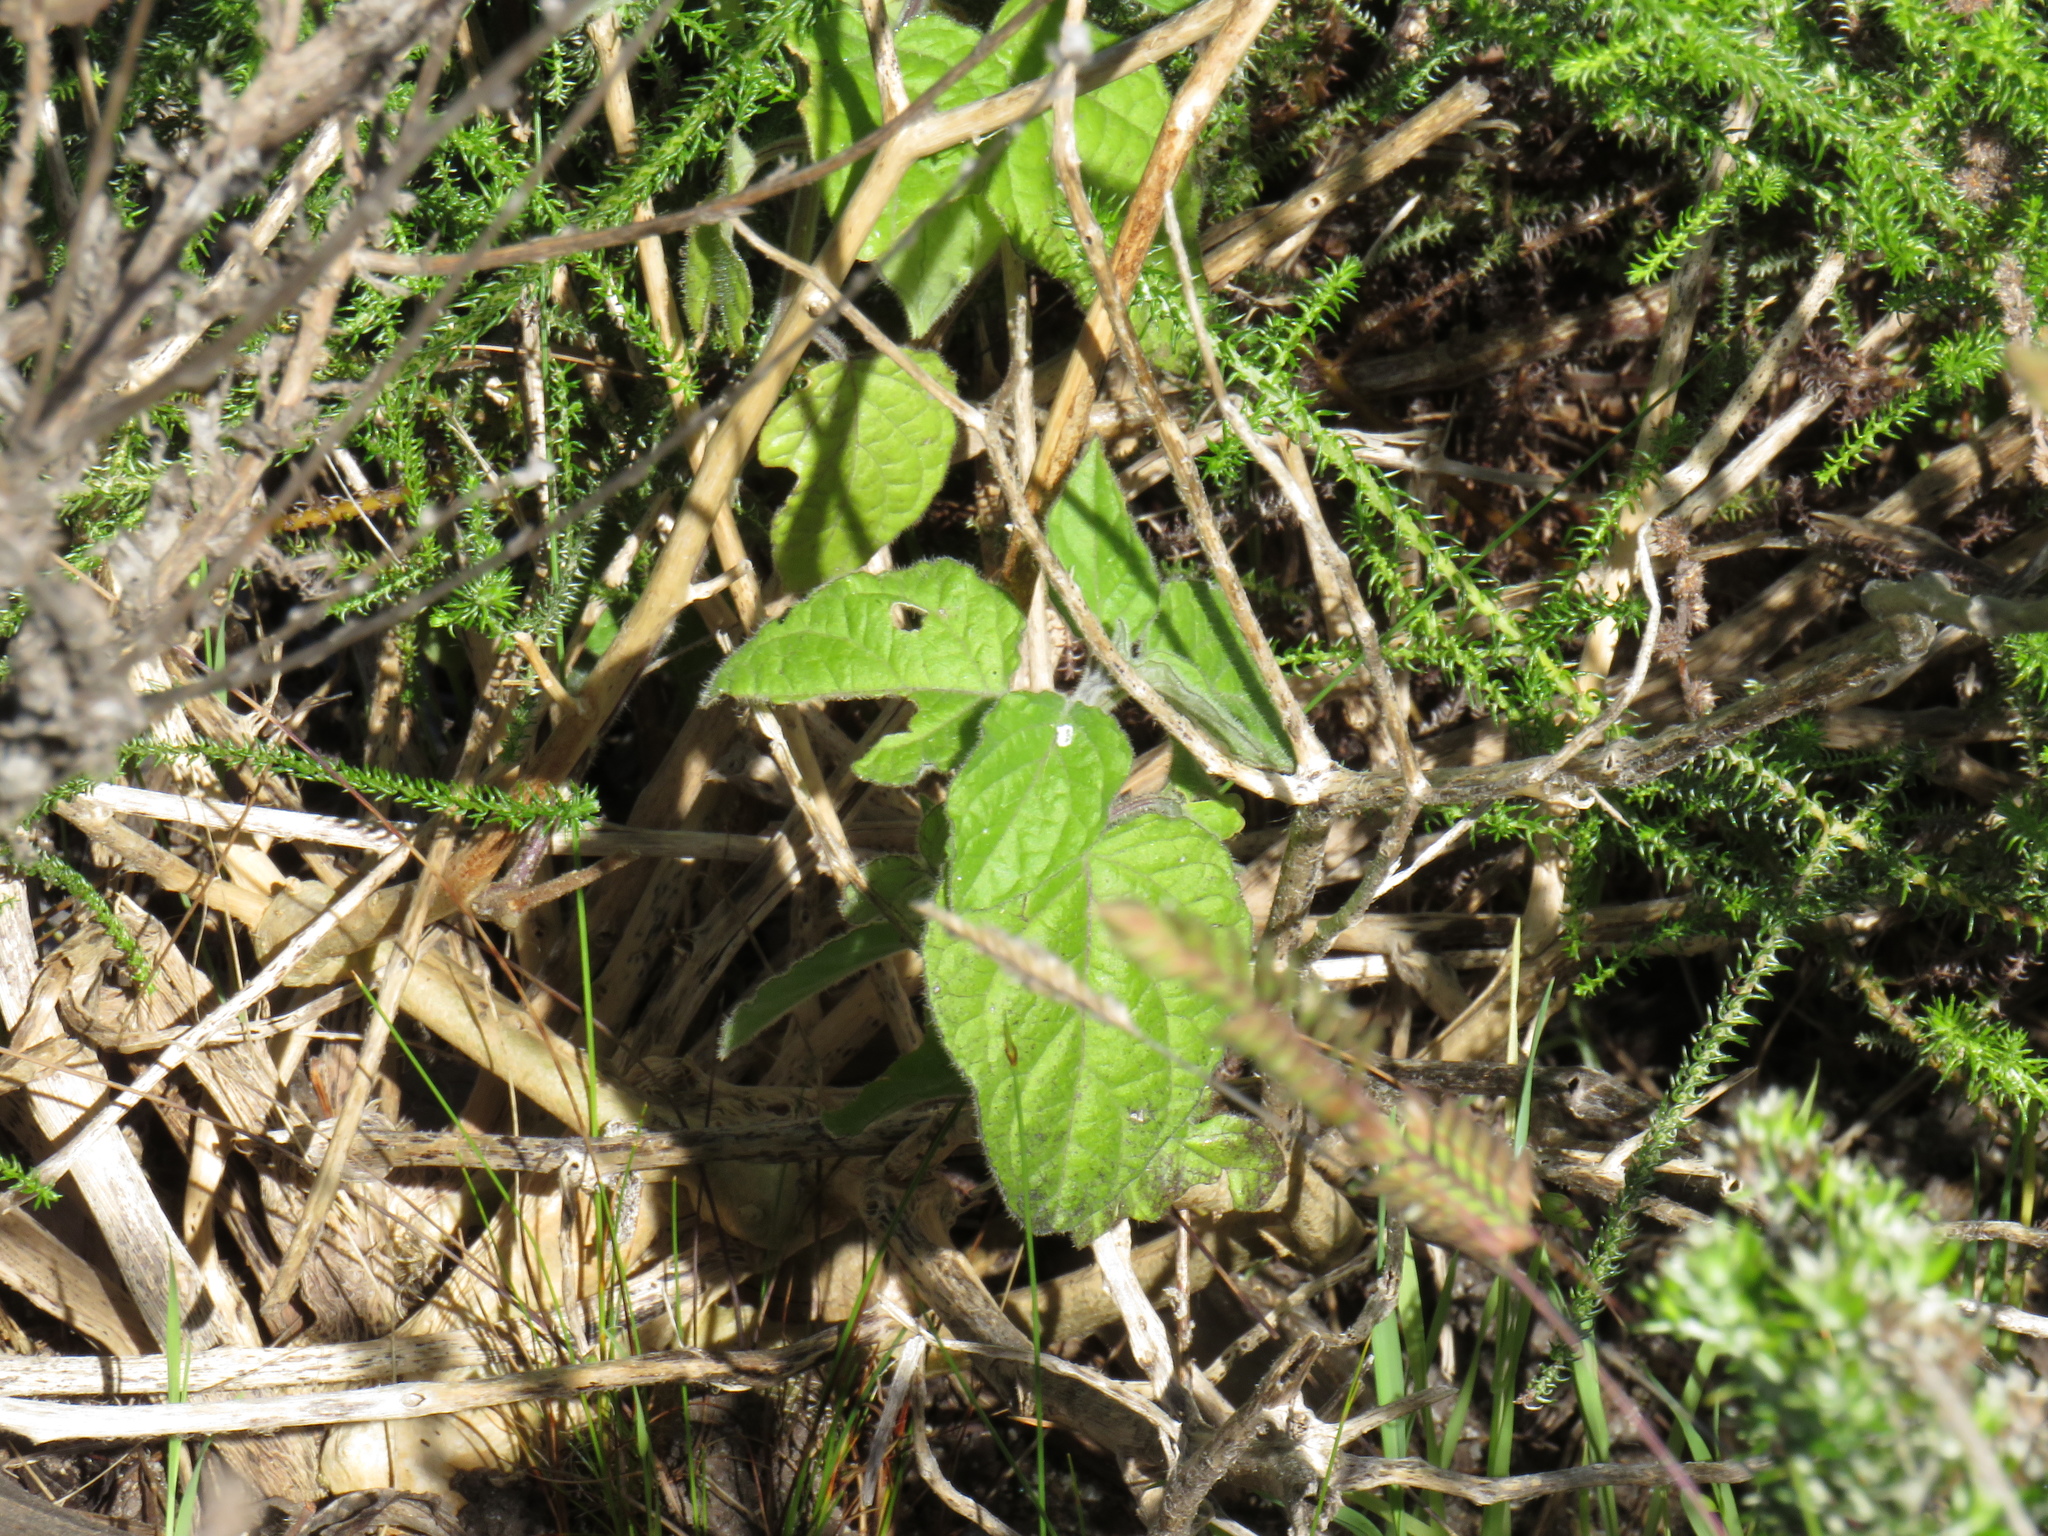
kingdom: Plantae
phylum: Tracheophyta
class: Magnoliopsida
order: Solanales
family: Solanaceae
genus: Physalis
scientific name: Physalis peruviana
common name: Cape-gooseberry
